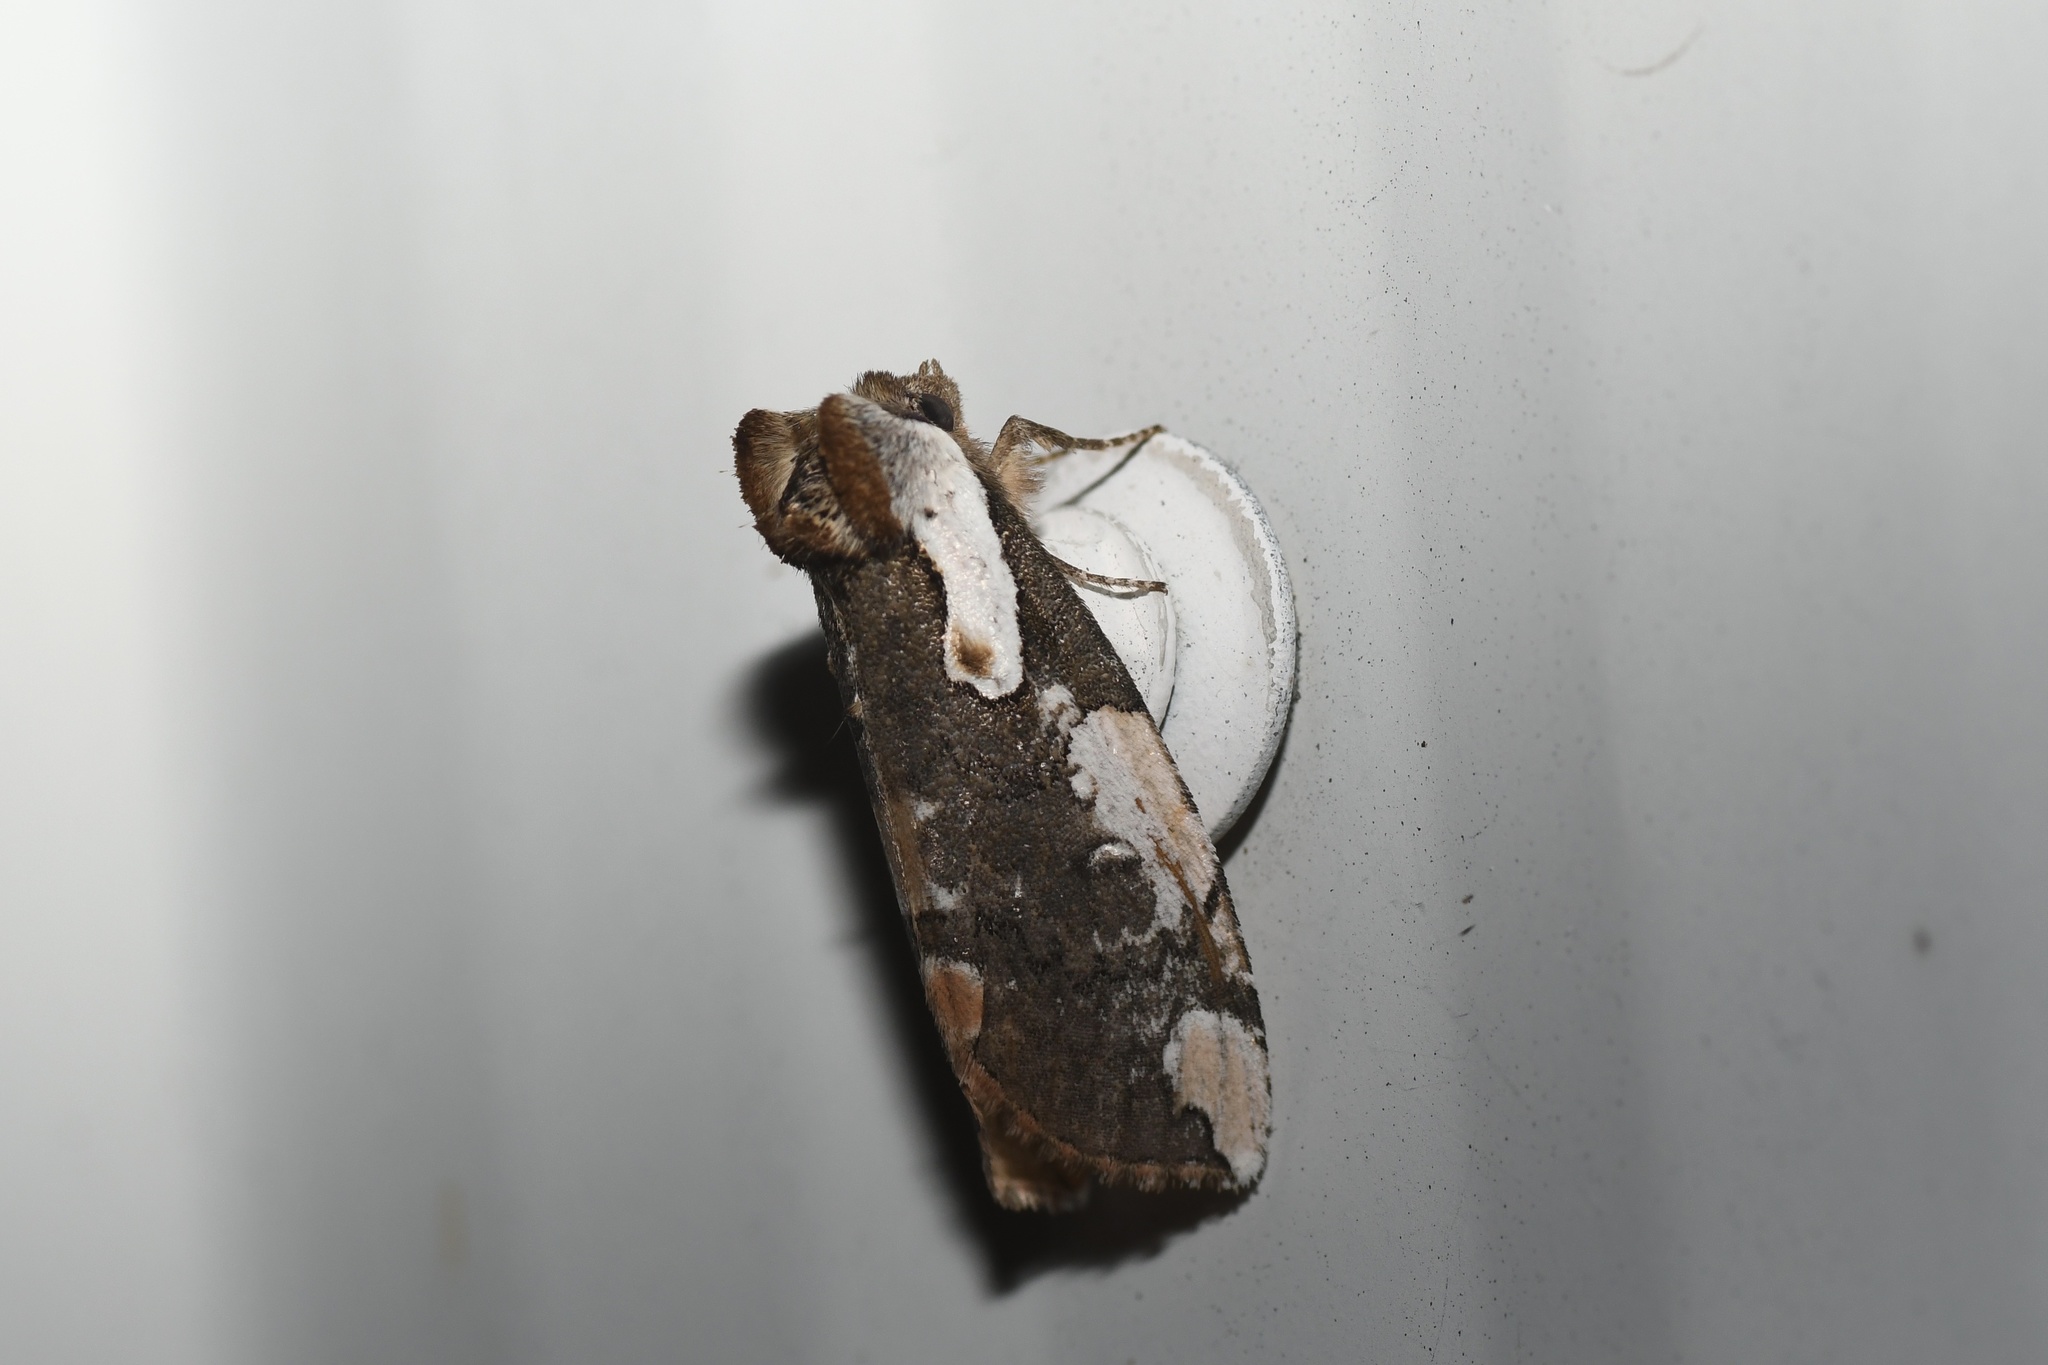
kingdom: Animalia
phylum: Arthropoda
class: Insecta
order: Lepidoptera
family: Drepanidae
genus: Euthyatira
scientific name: Euthyatira pudens
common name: Dogwood thyatirid moth
